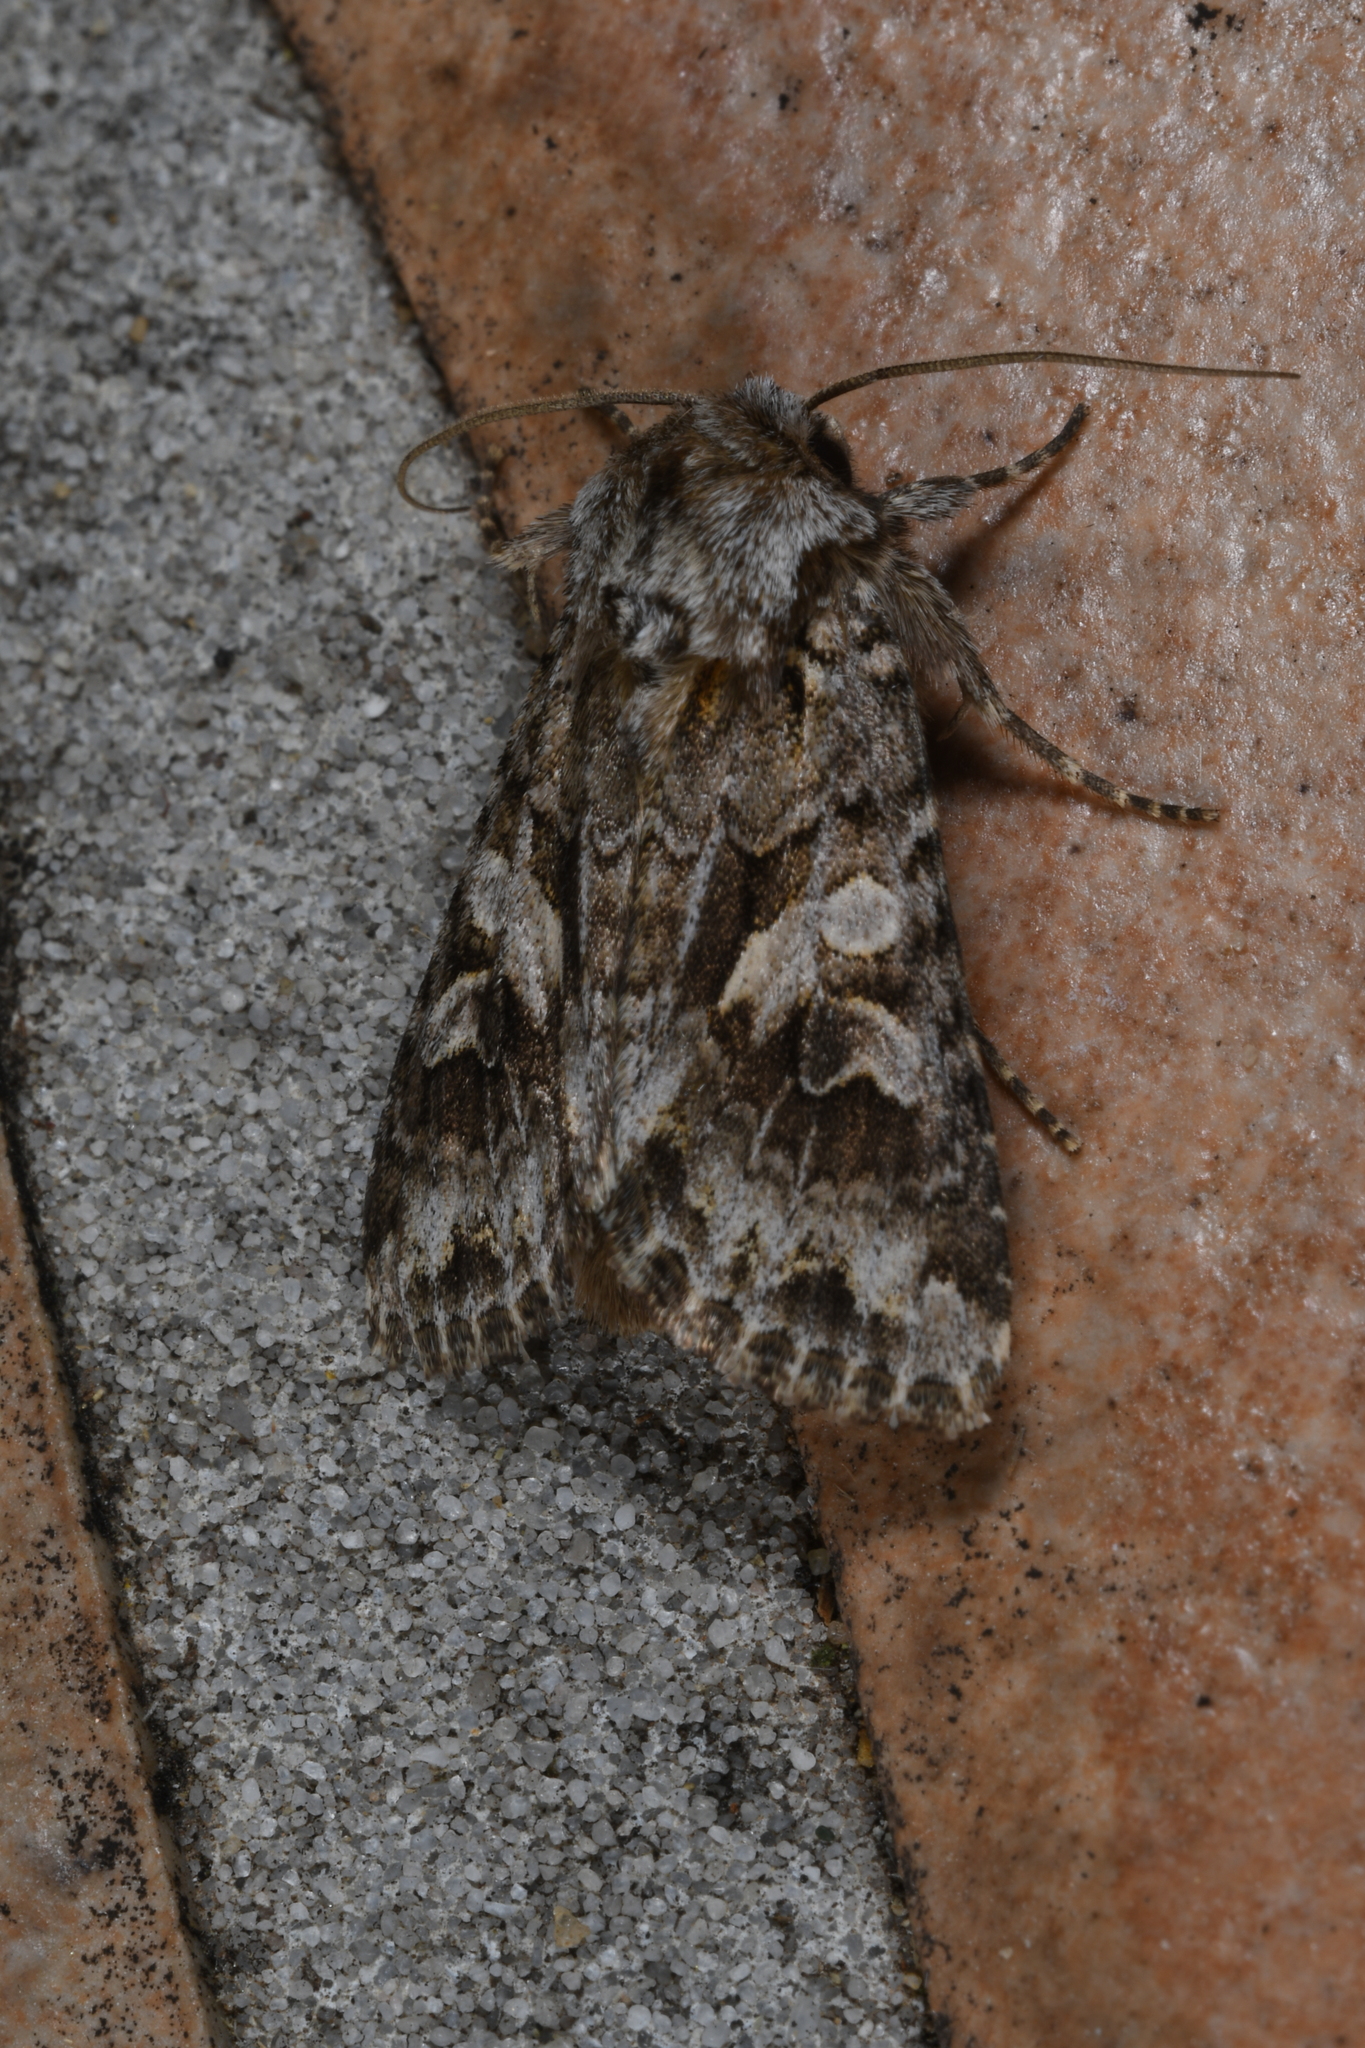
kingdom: Animalia
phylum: Arthropoda
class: Insecta
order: Lepidoptera
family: Noctuidae
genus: Hada
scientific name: Hada plebeja
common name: Shears
